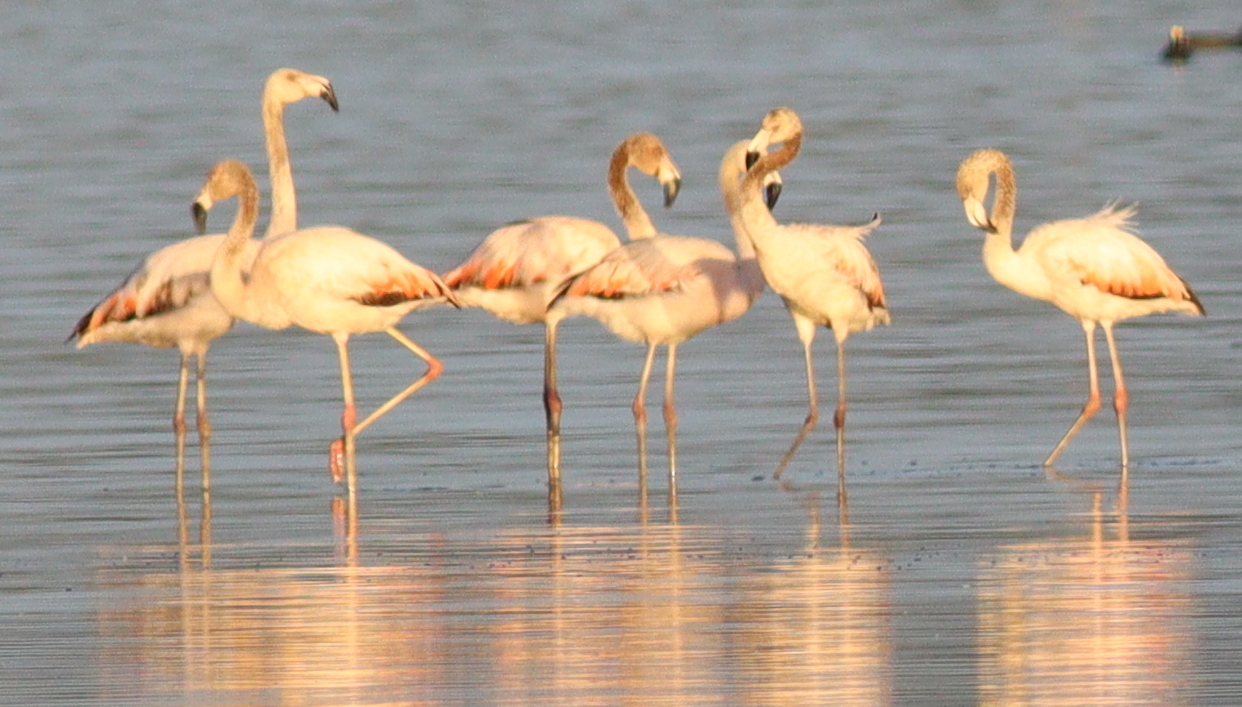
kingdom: Animalia
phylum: Chordata
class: Aves
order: Phoenicopteriformes
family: Phoenicopteridae
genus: Phoenicopterus
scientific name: Phoenicopterus chilensis
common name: Chilean flamingo
